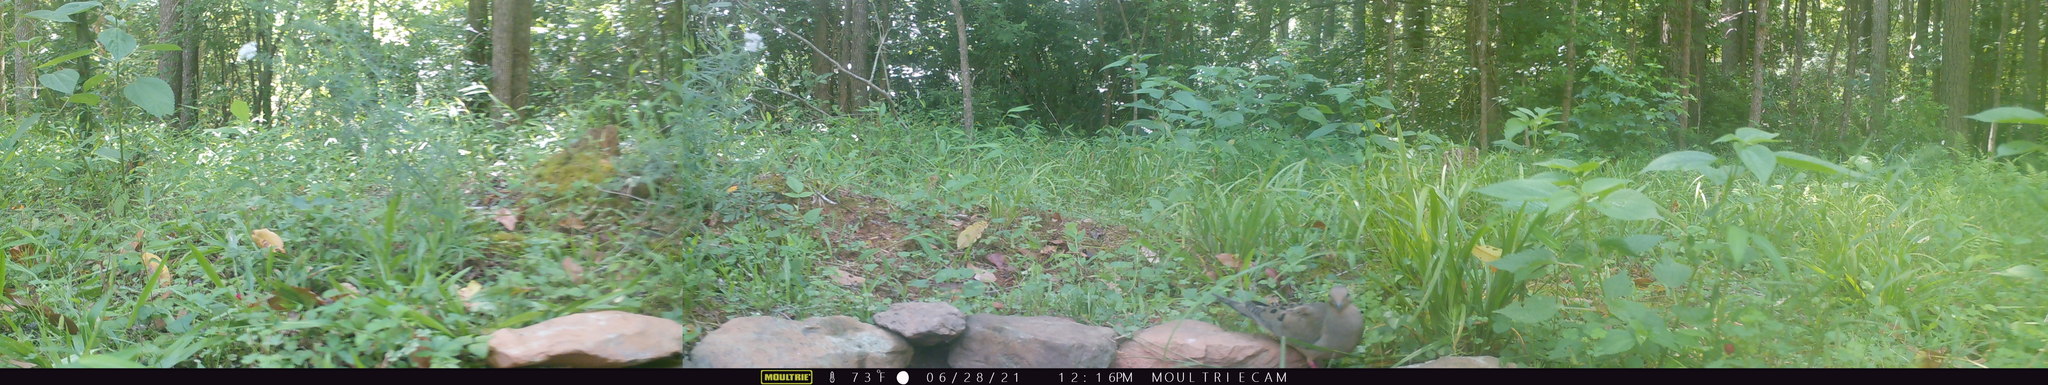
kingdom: Animalia
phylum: Chordata
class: Aves
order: Columbiformes
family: Columbidae
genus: Zenaida
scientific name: Zenaida macroura
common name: Mourning dove
